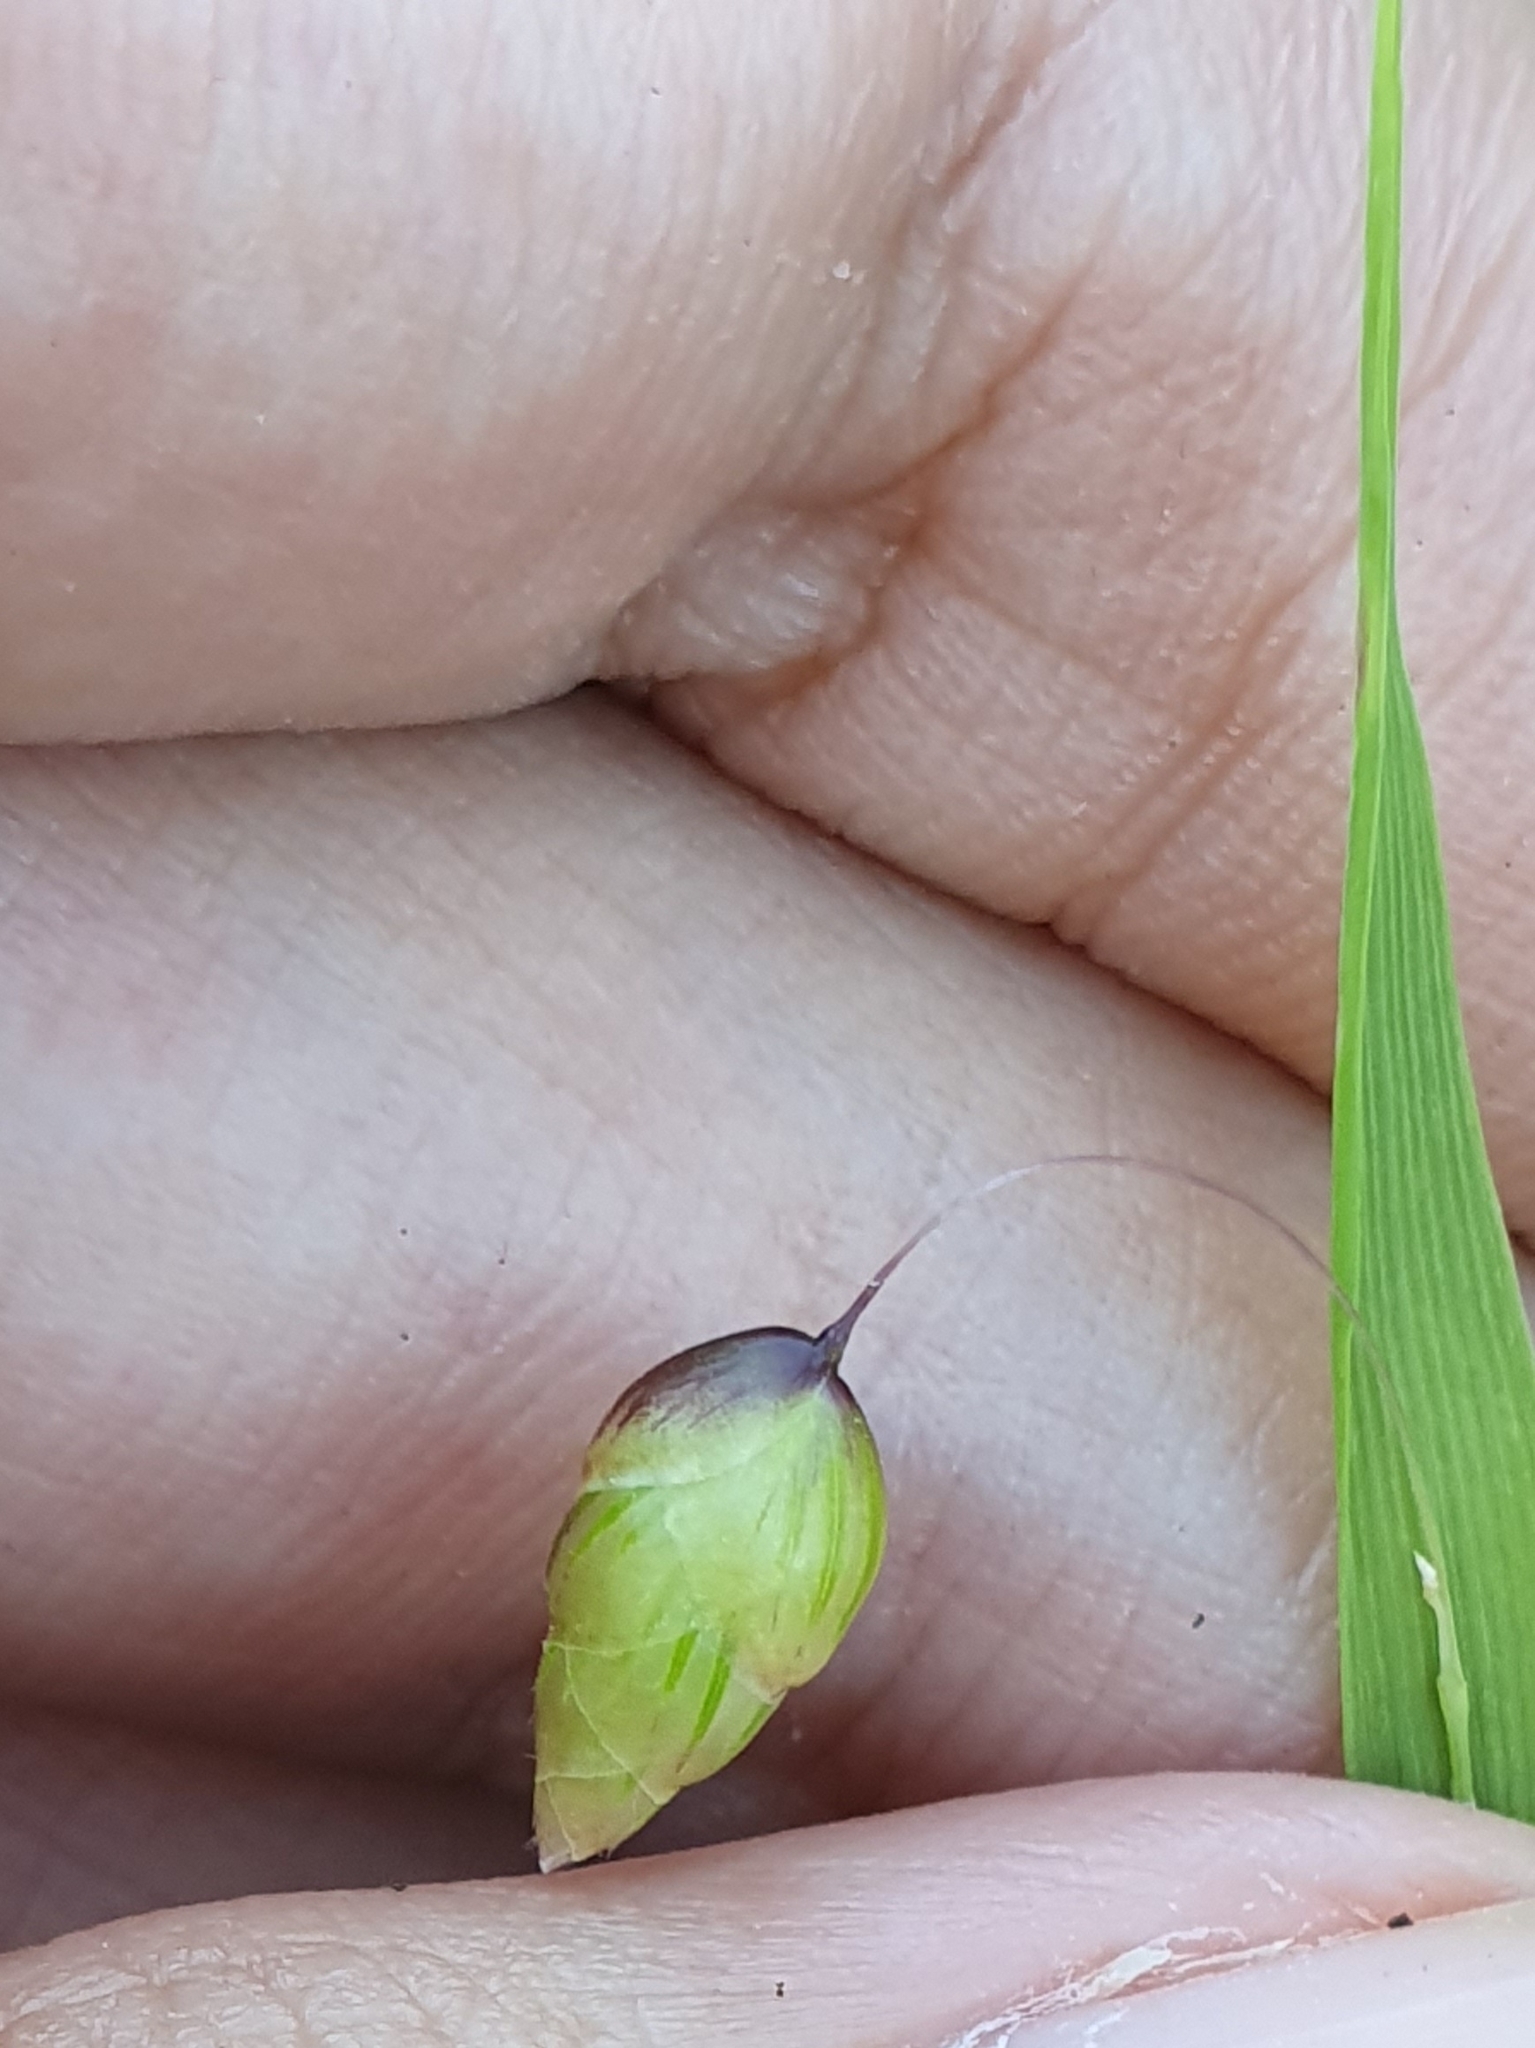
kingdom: Plantae
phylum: Tracheophyta
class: Liliopsida
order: Poales
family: Poaceae
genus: Briza
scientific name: Briza maxima
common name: Big quakinggrass
